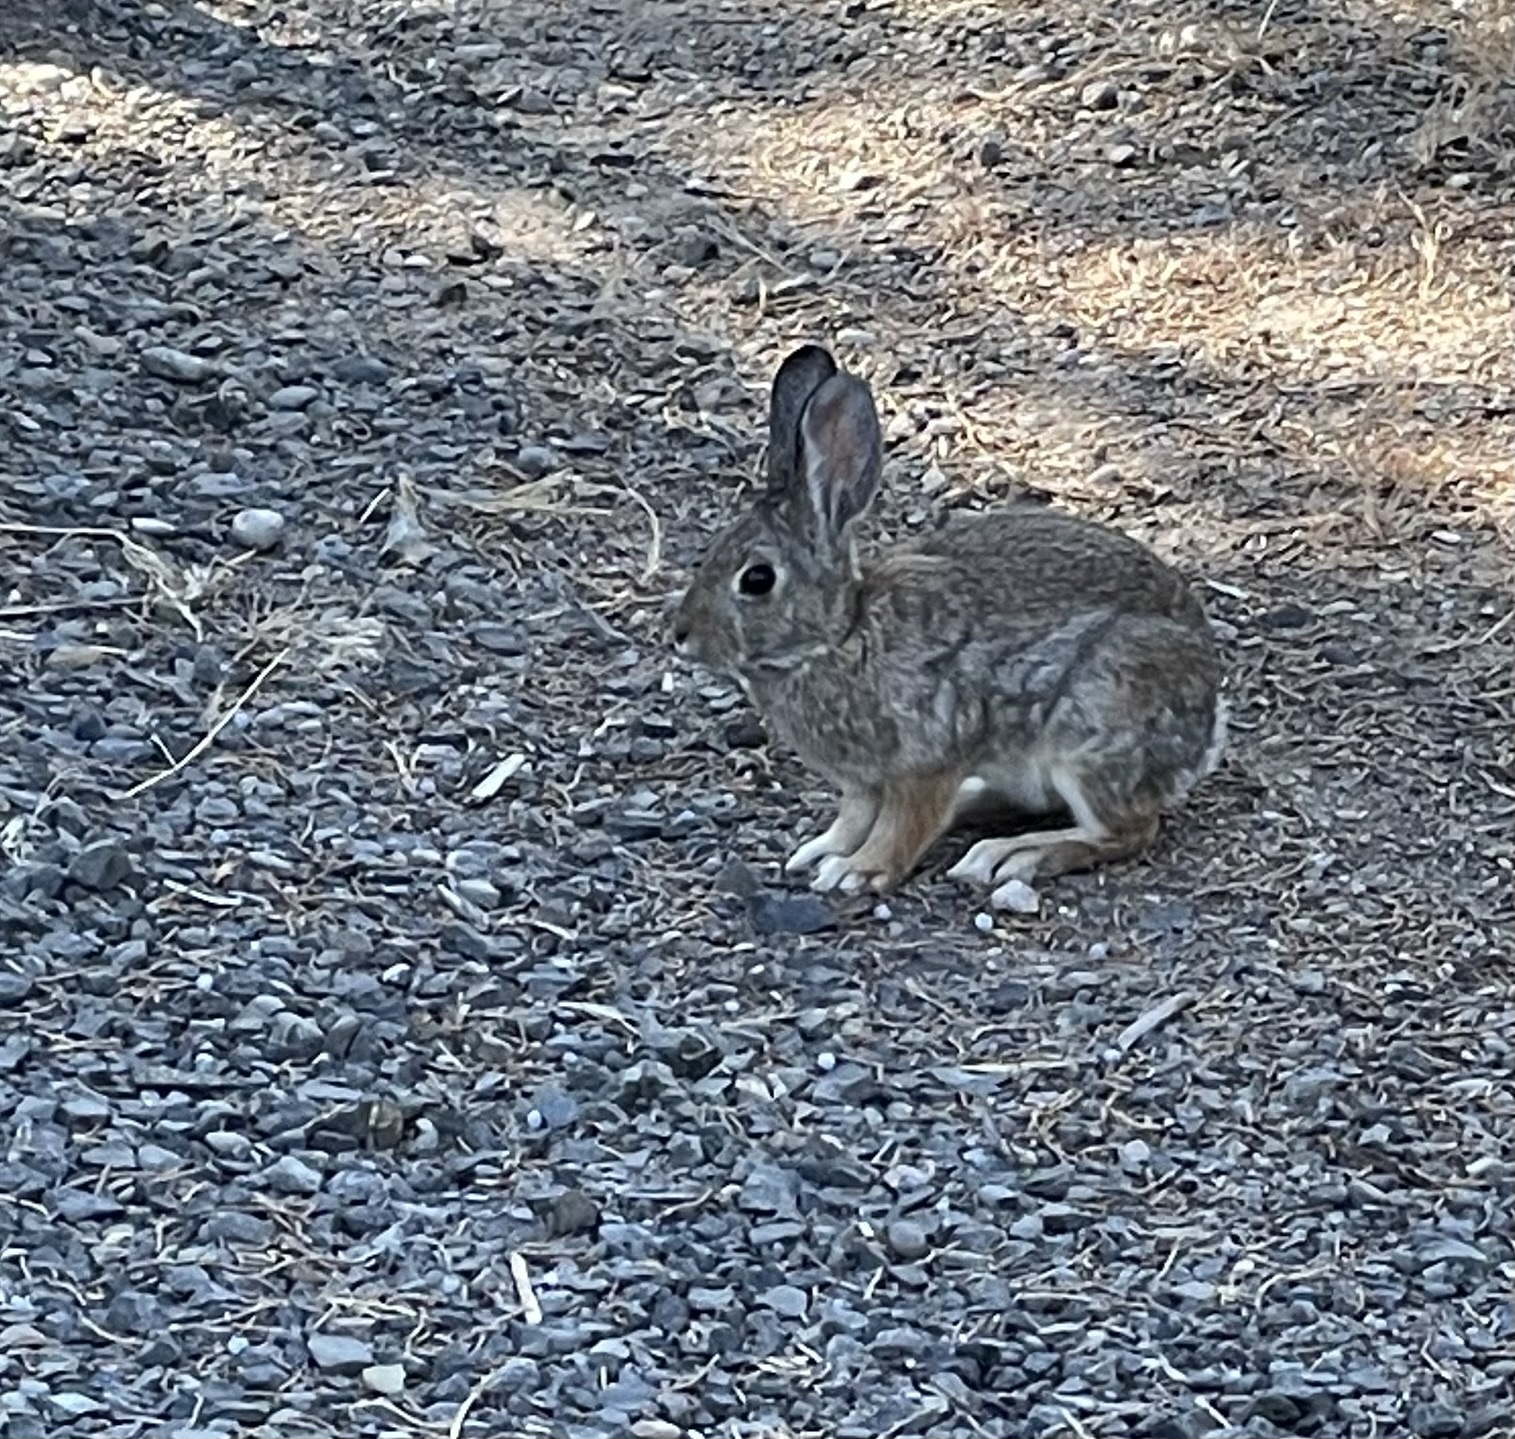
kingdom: Animalia
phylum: Chordata
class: Mammalia
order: Lagomorpha
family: Leporidae
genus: Sylvilagus
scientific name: Sylvilagus nuttallii
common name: Mountain cottontail
